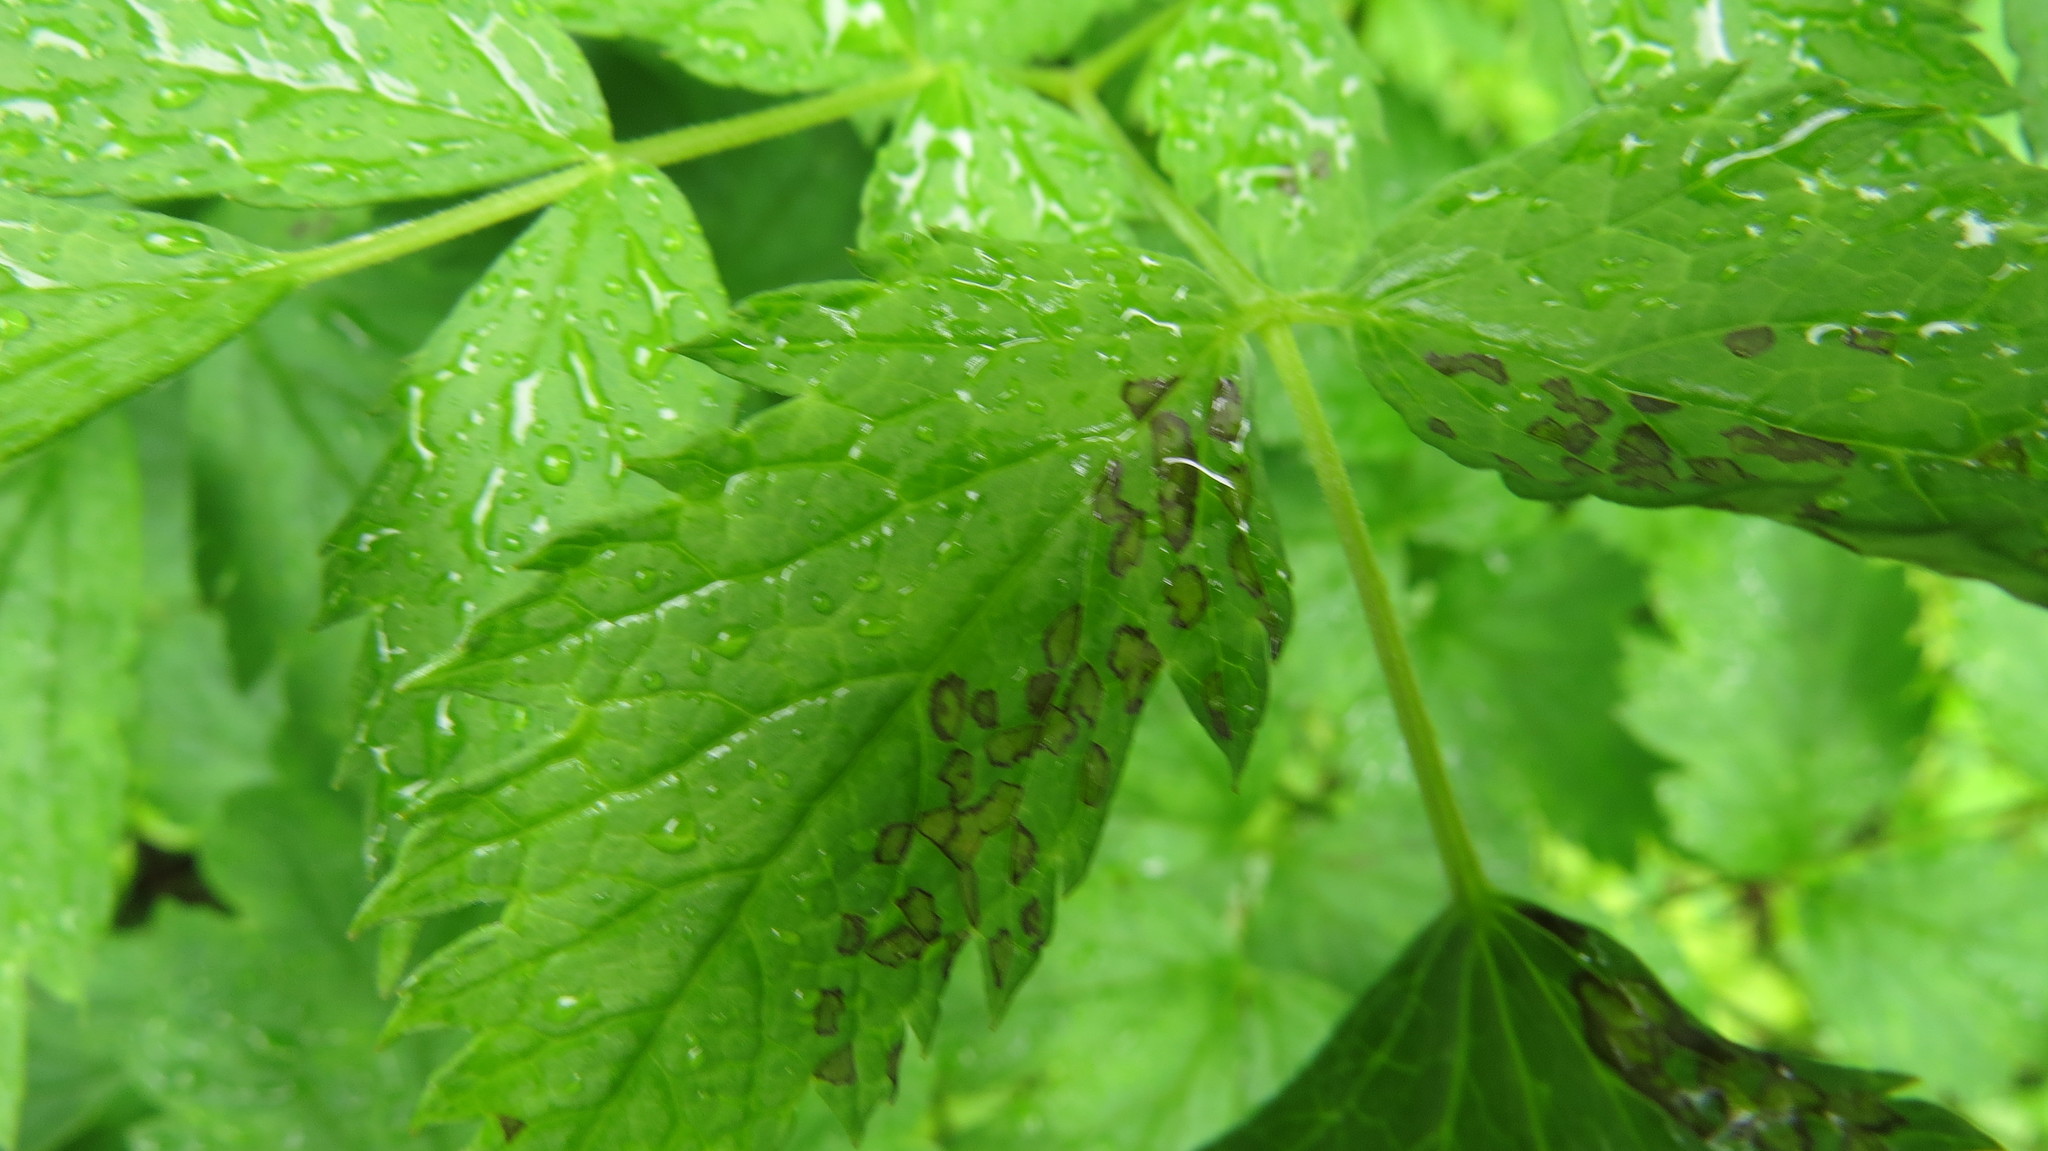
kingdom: Animalia
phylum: Arthropoda
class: Insecta
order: Hemiptera
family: Miridae
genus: Poecilocapsus
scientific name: Poecilocapsus lineatus
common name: Four-lined plant bug
